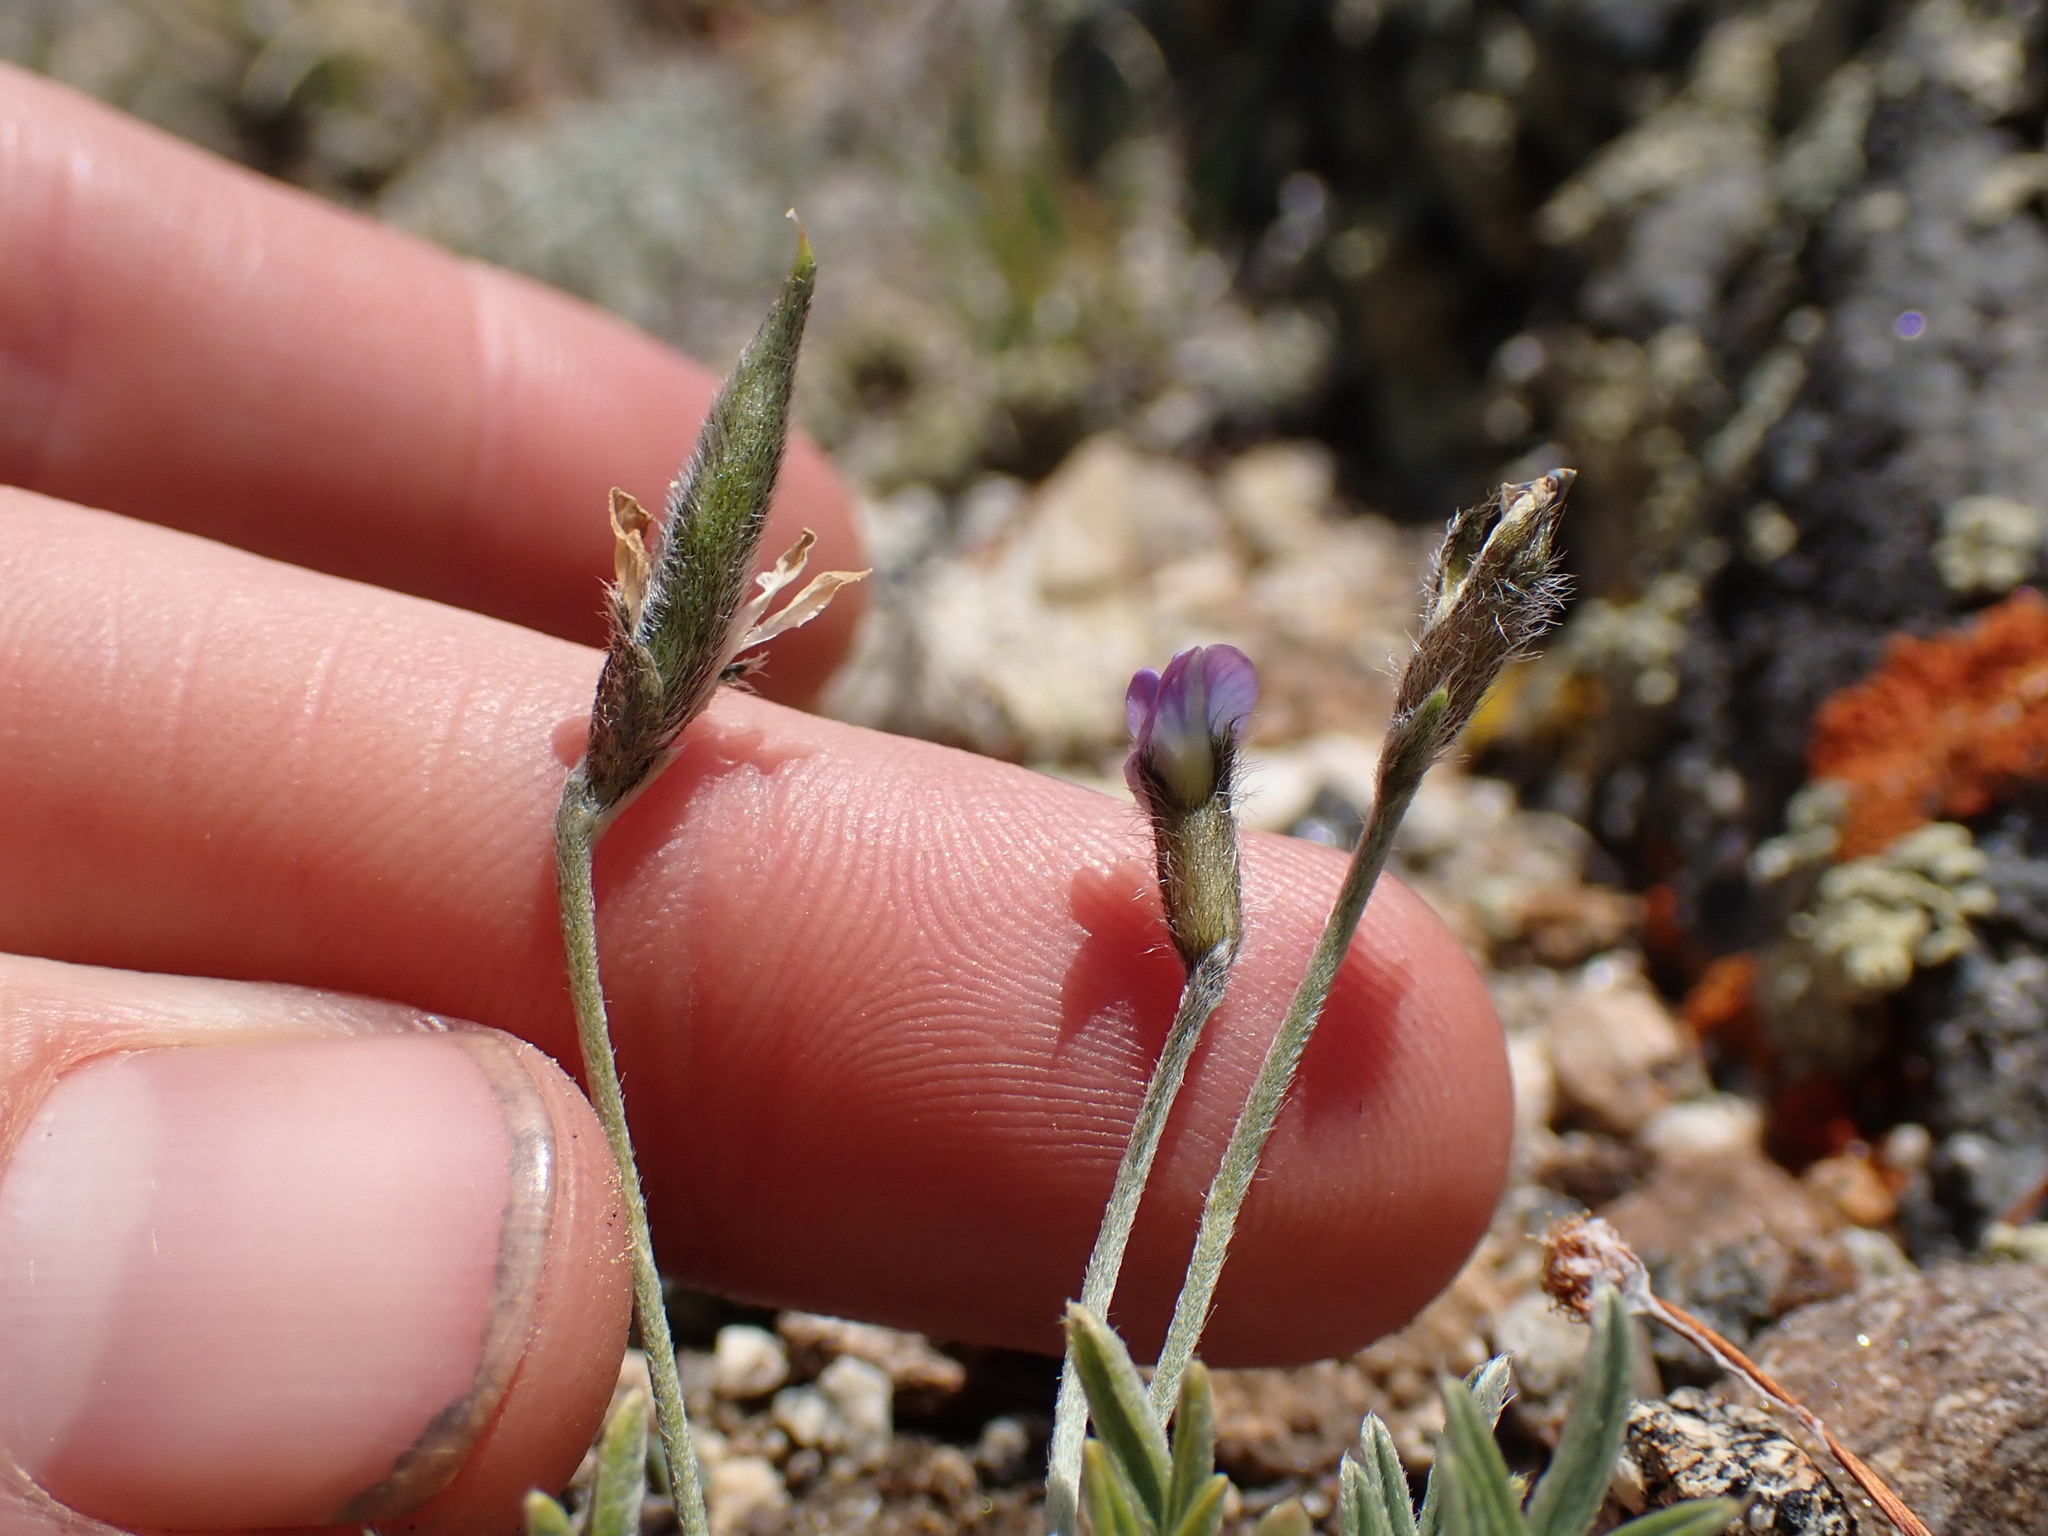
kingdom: Plantae
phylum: Tracheophyta
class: Magnoliopsida
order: Fabales
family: Fabaceae
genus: Oxytropis
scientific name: Oxytropis parryi
